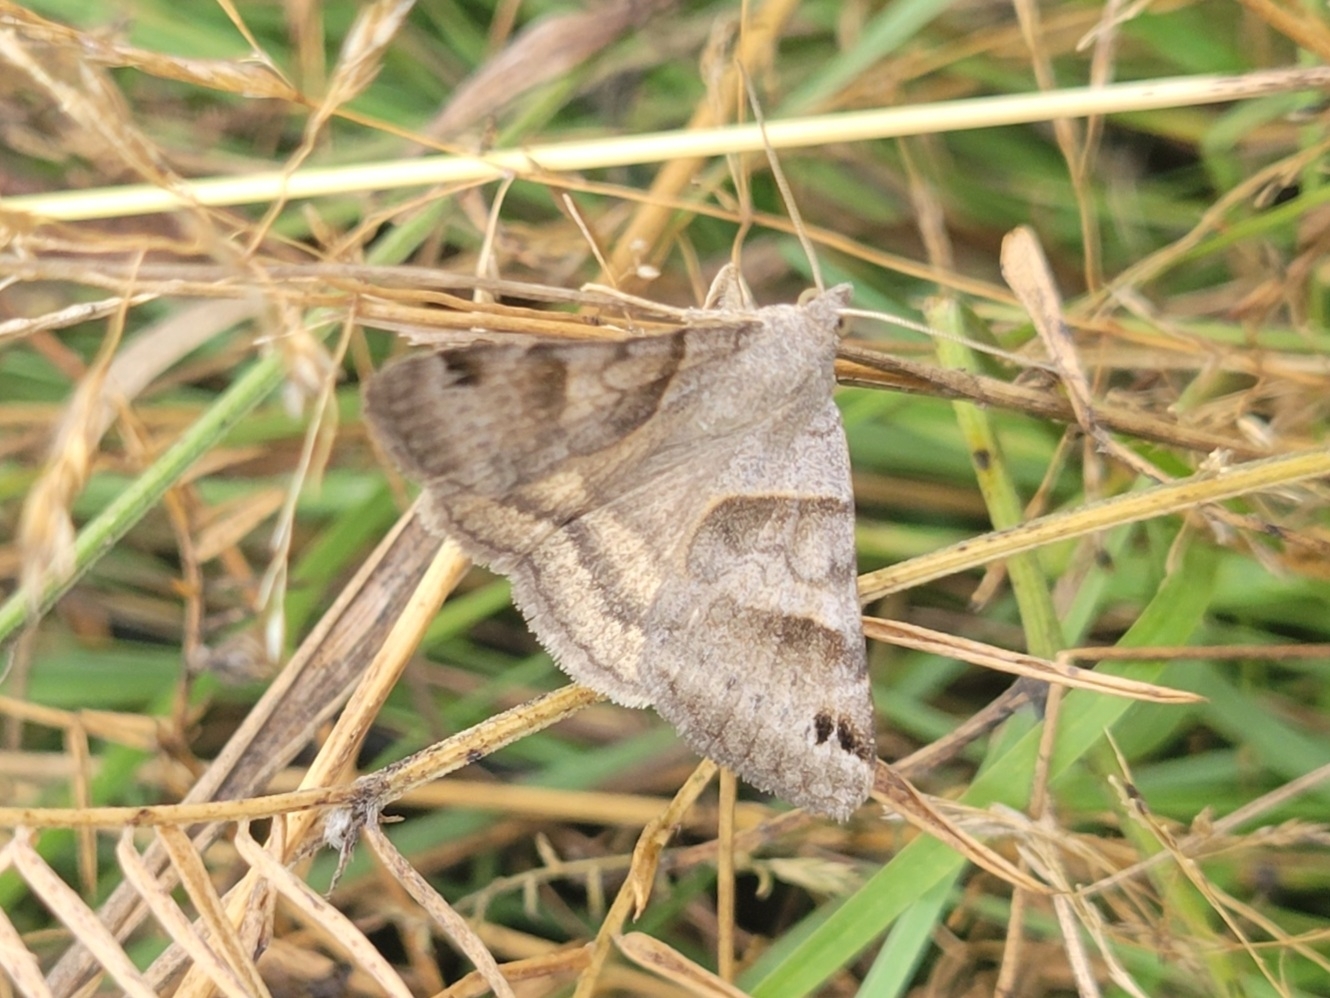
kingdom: Animalia
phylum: Arthropoda
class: Insecta
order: Lepidoptera
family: Erebidae
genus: Caenurgina
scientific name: Caenurgina erechtea
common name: Forage looper moth
